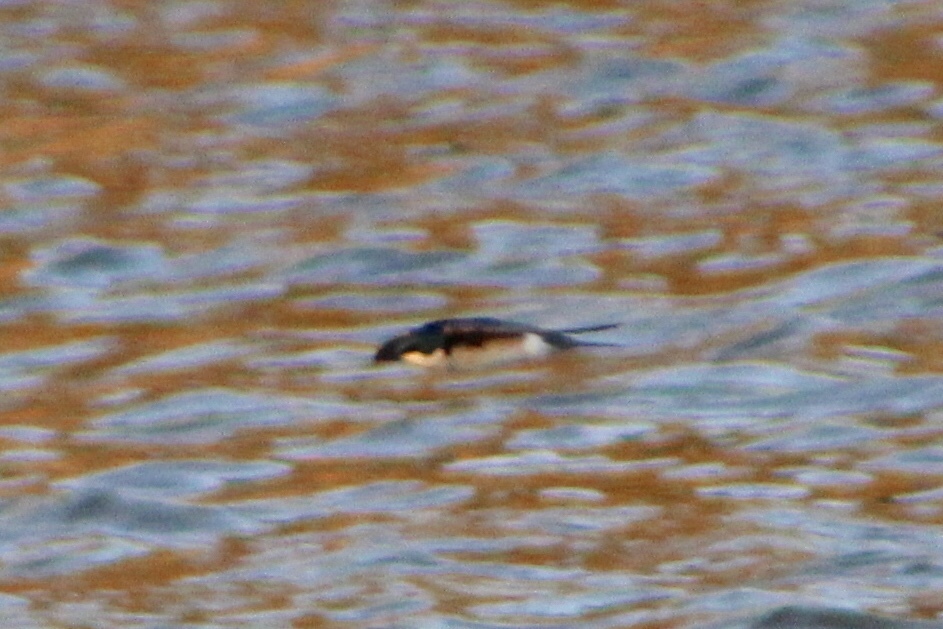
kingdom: Animalia
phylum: Chordata
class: Aves
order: Passeriformes
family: Hirundinidae
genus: Tachycineta
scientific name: Tachycineta bicolor
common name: Tree swallow
